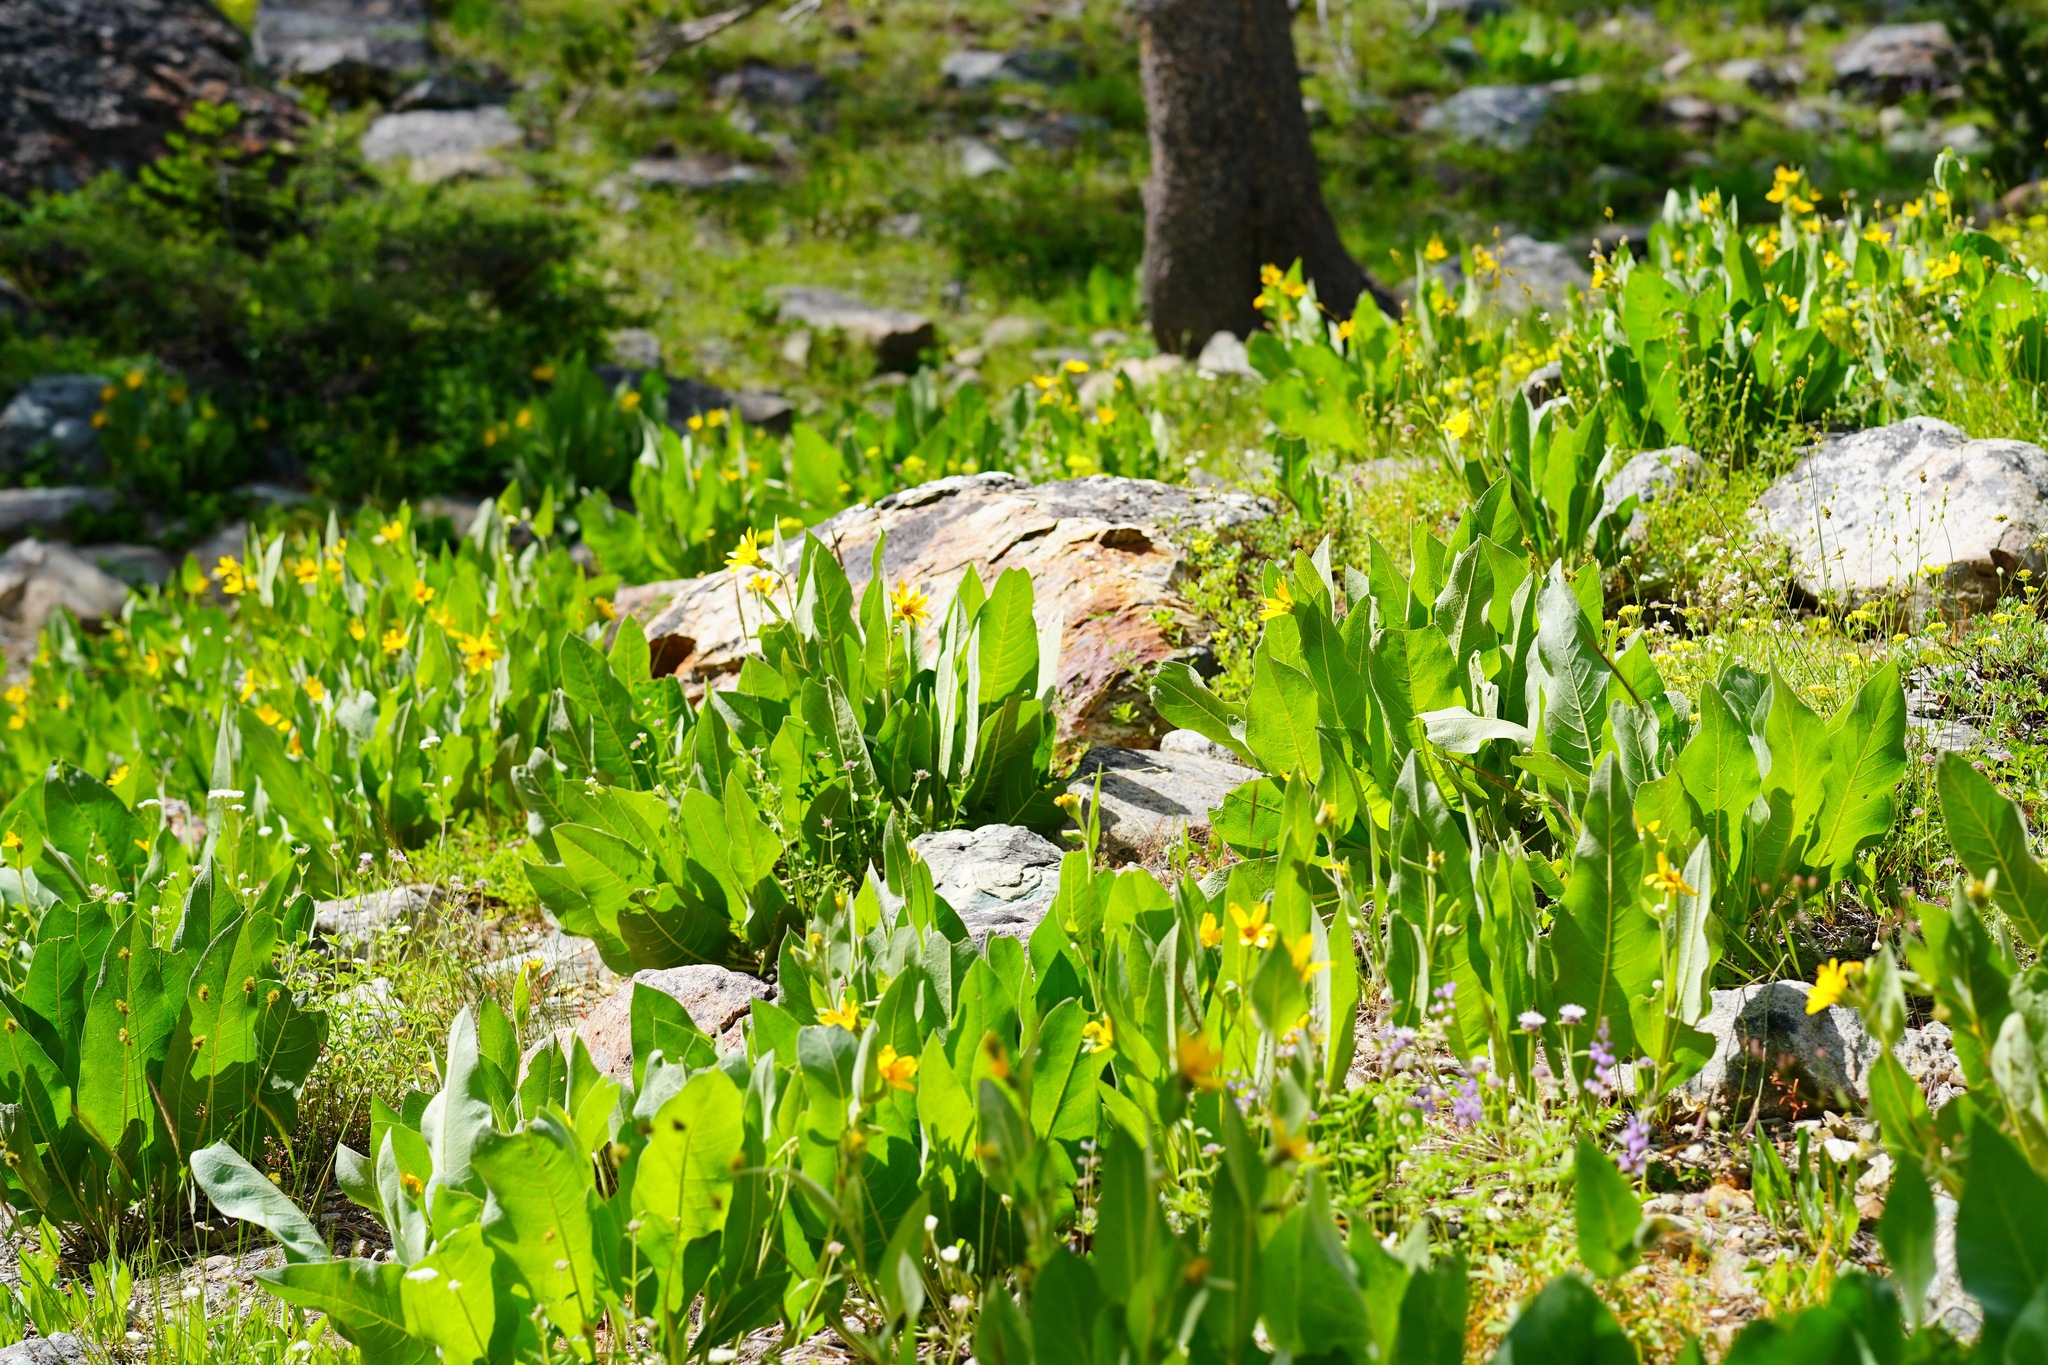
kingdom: Plantae
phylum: Tracheophyta
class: Magnoliopsida
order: Asterales
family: Asteraceae
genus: Wyethia
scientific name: Wyethia mollis
